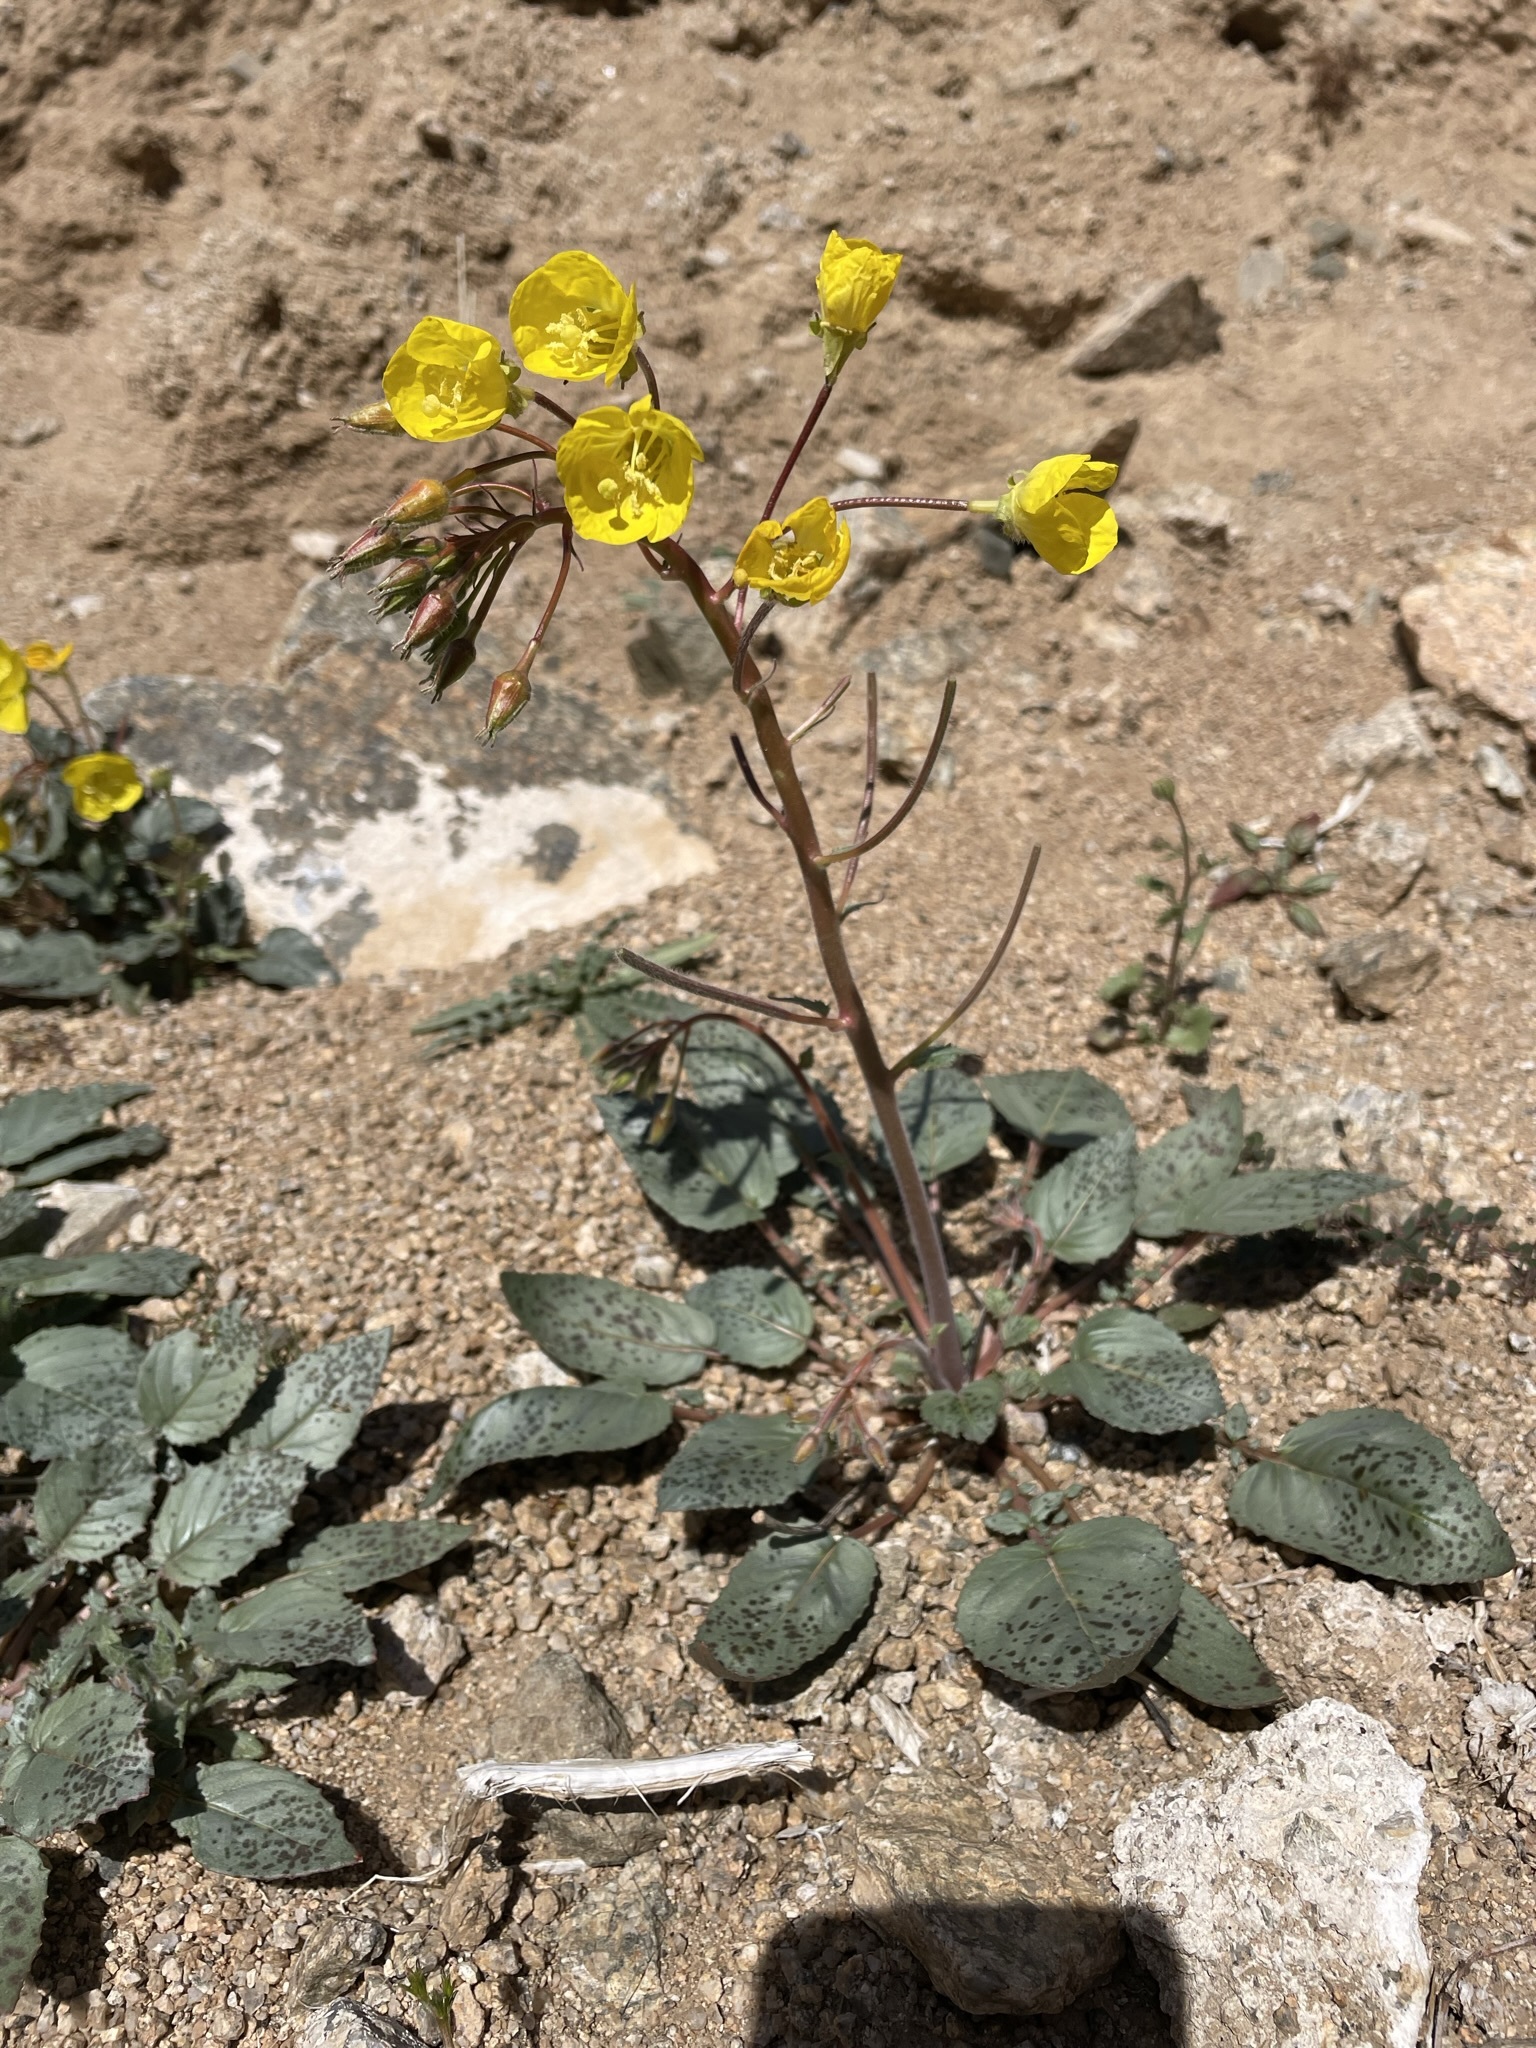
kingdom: Plantae
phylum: Tracheophyta
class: Magnoliopsida
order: Myrtales
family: Onagraceae
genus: Chylismia
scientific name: Chylismia brevipes
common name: Yellow cups
